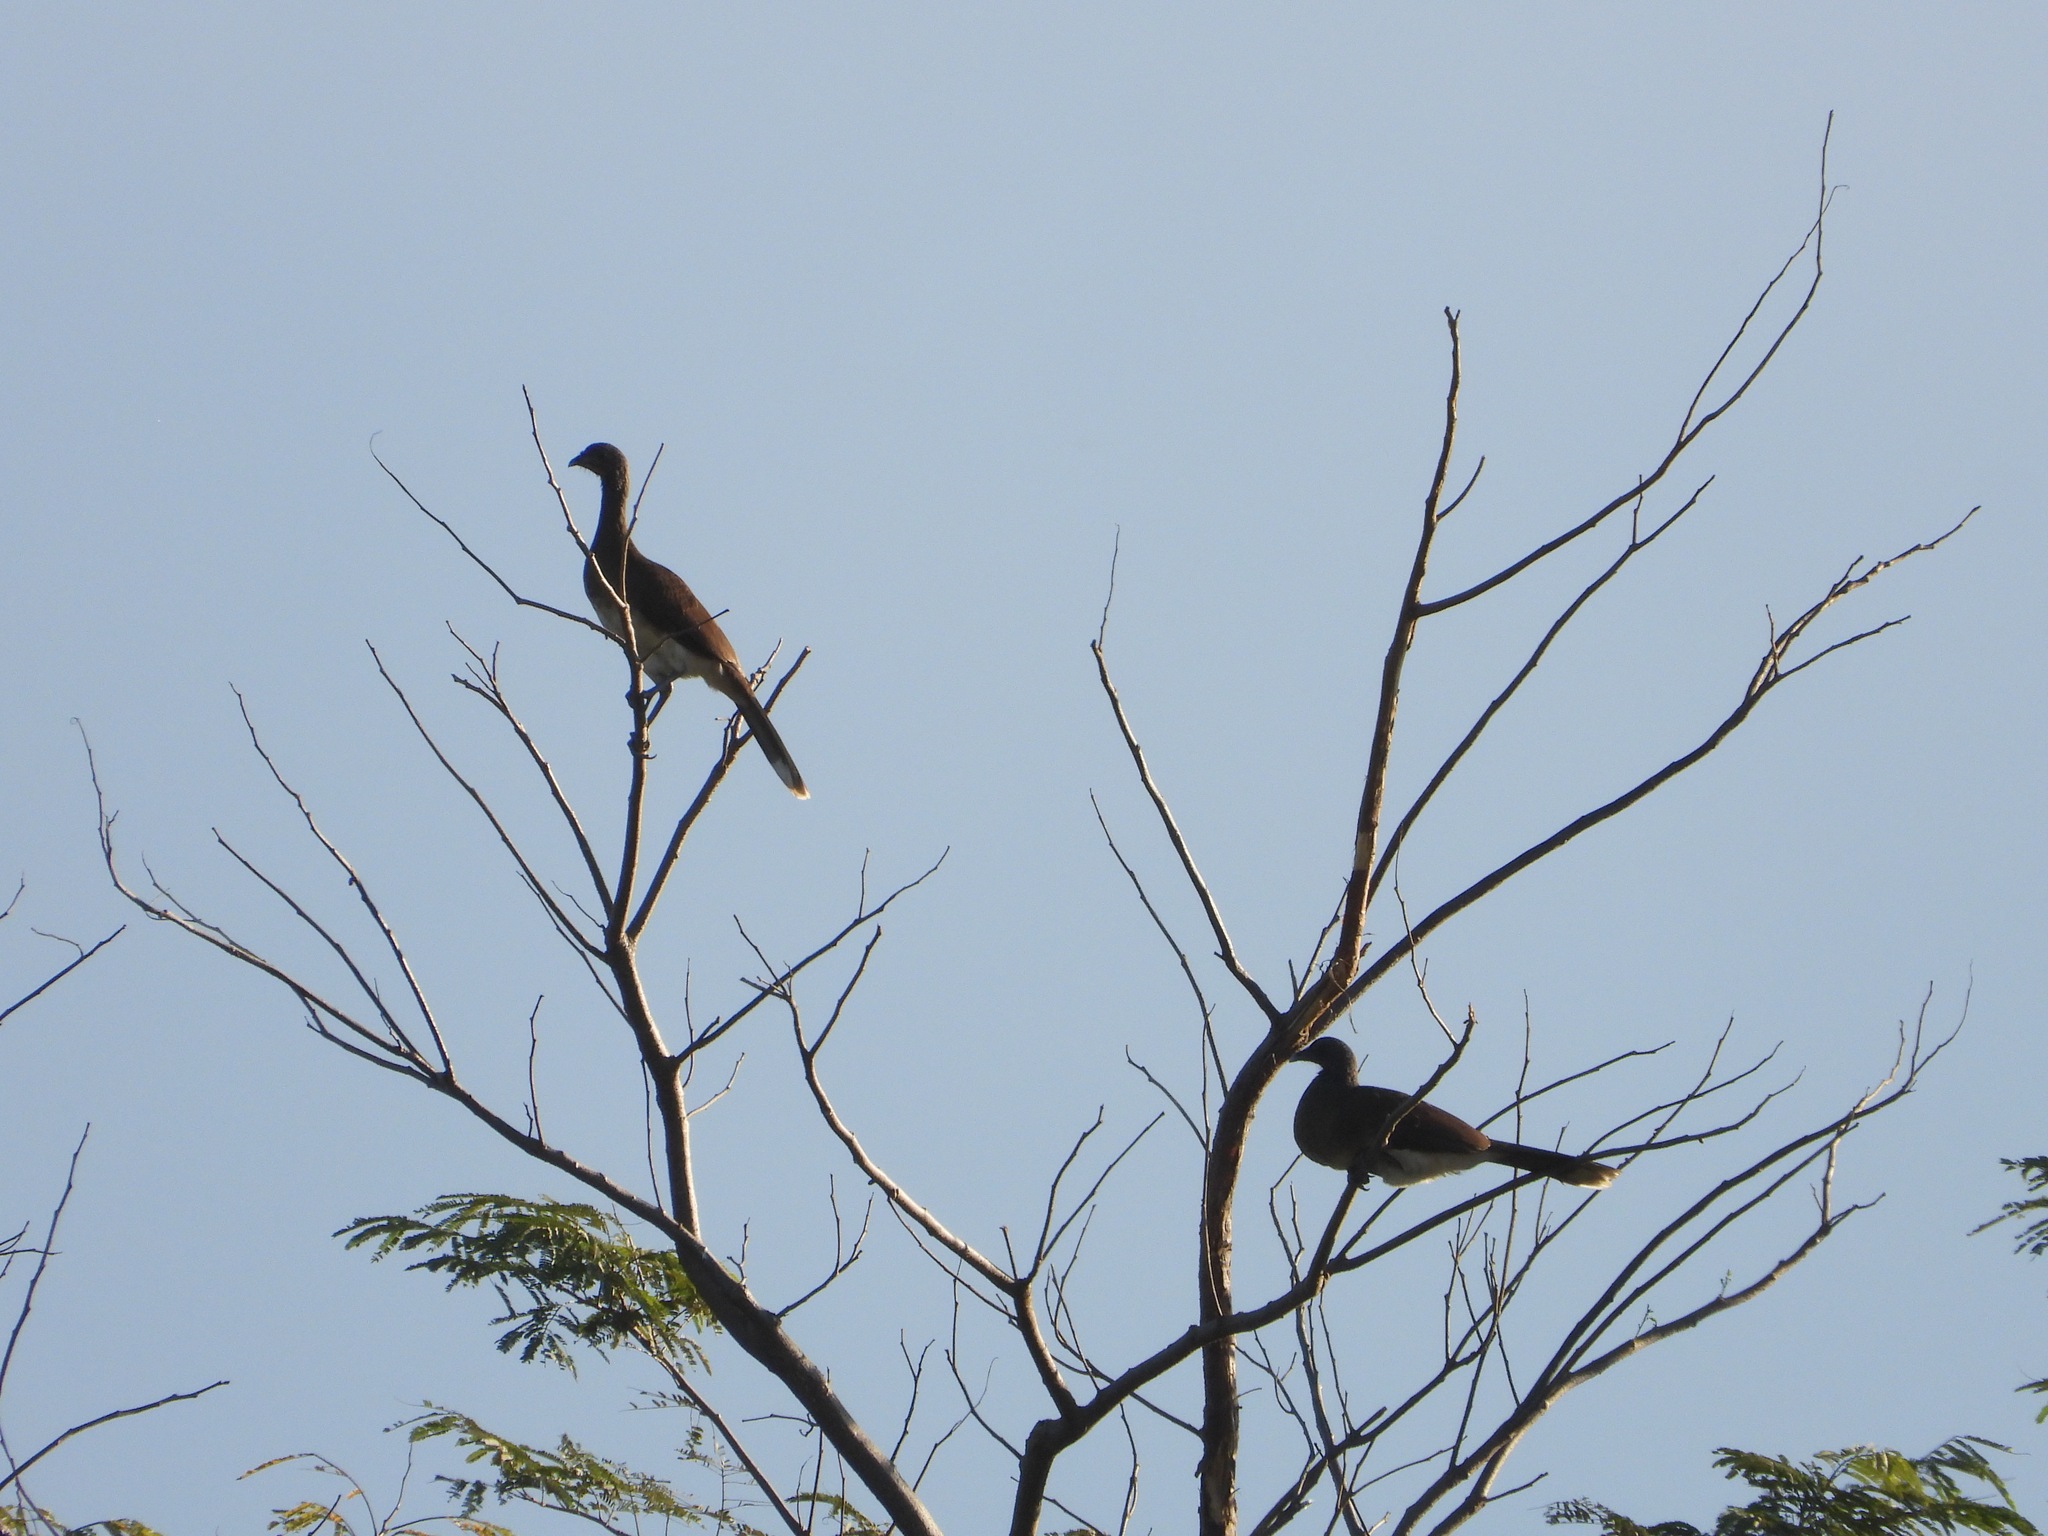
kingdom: Animalia
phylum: Chordata
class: Aves
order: Galliformes
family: Cracidae
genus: Ortalis
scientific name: Ortalis leucogastra
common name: White-bellied chachalaca
